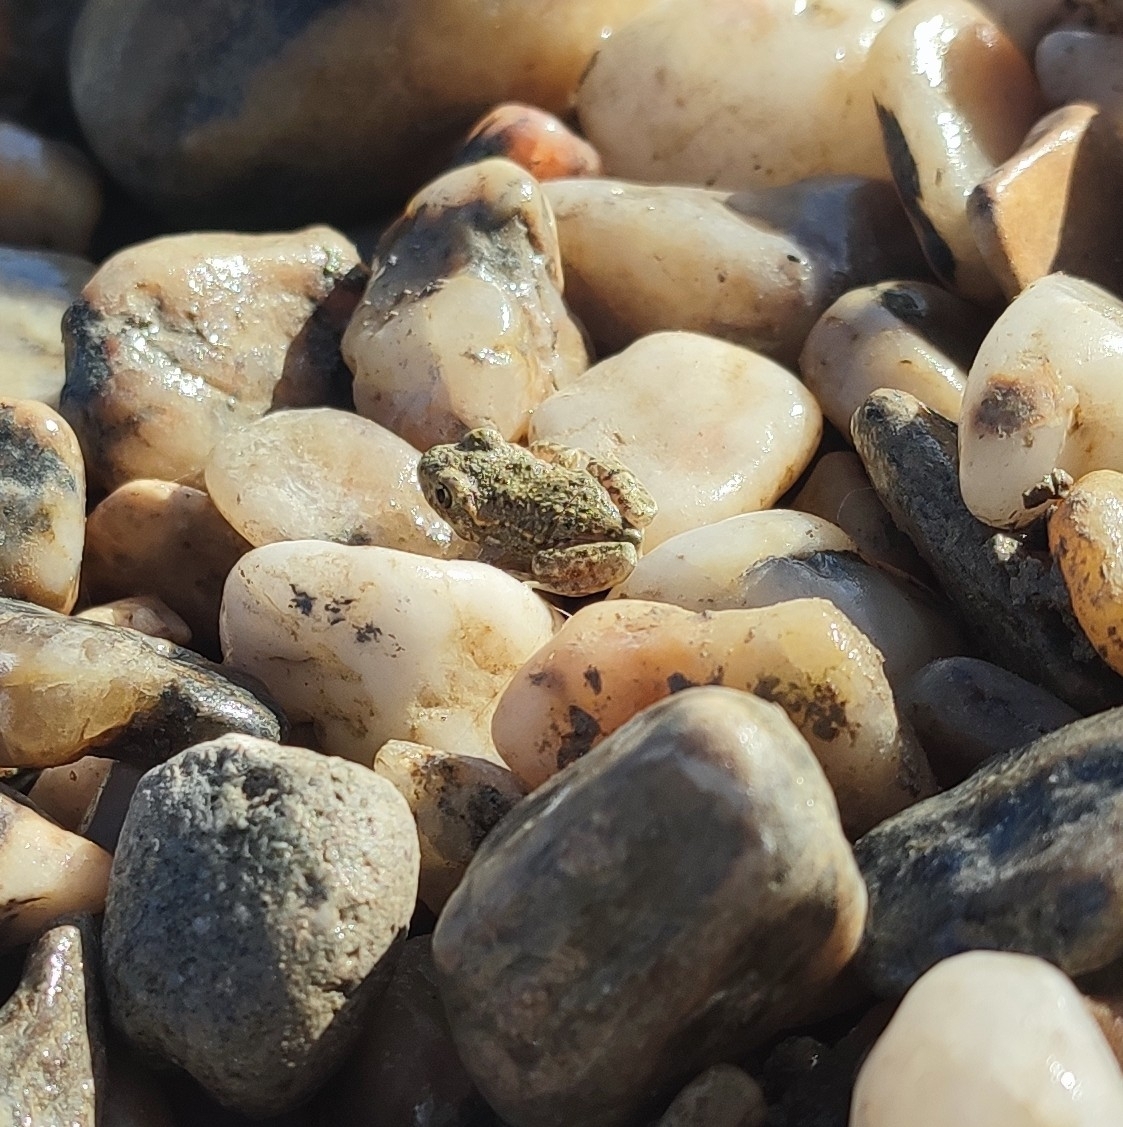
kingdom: Animalia
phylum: Chordata
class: Amphibia
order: Anura
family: Alytidae
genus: Alytes
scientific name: Alytes obstetricans
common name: Midwife toad
